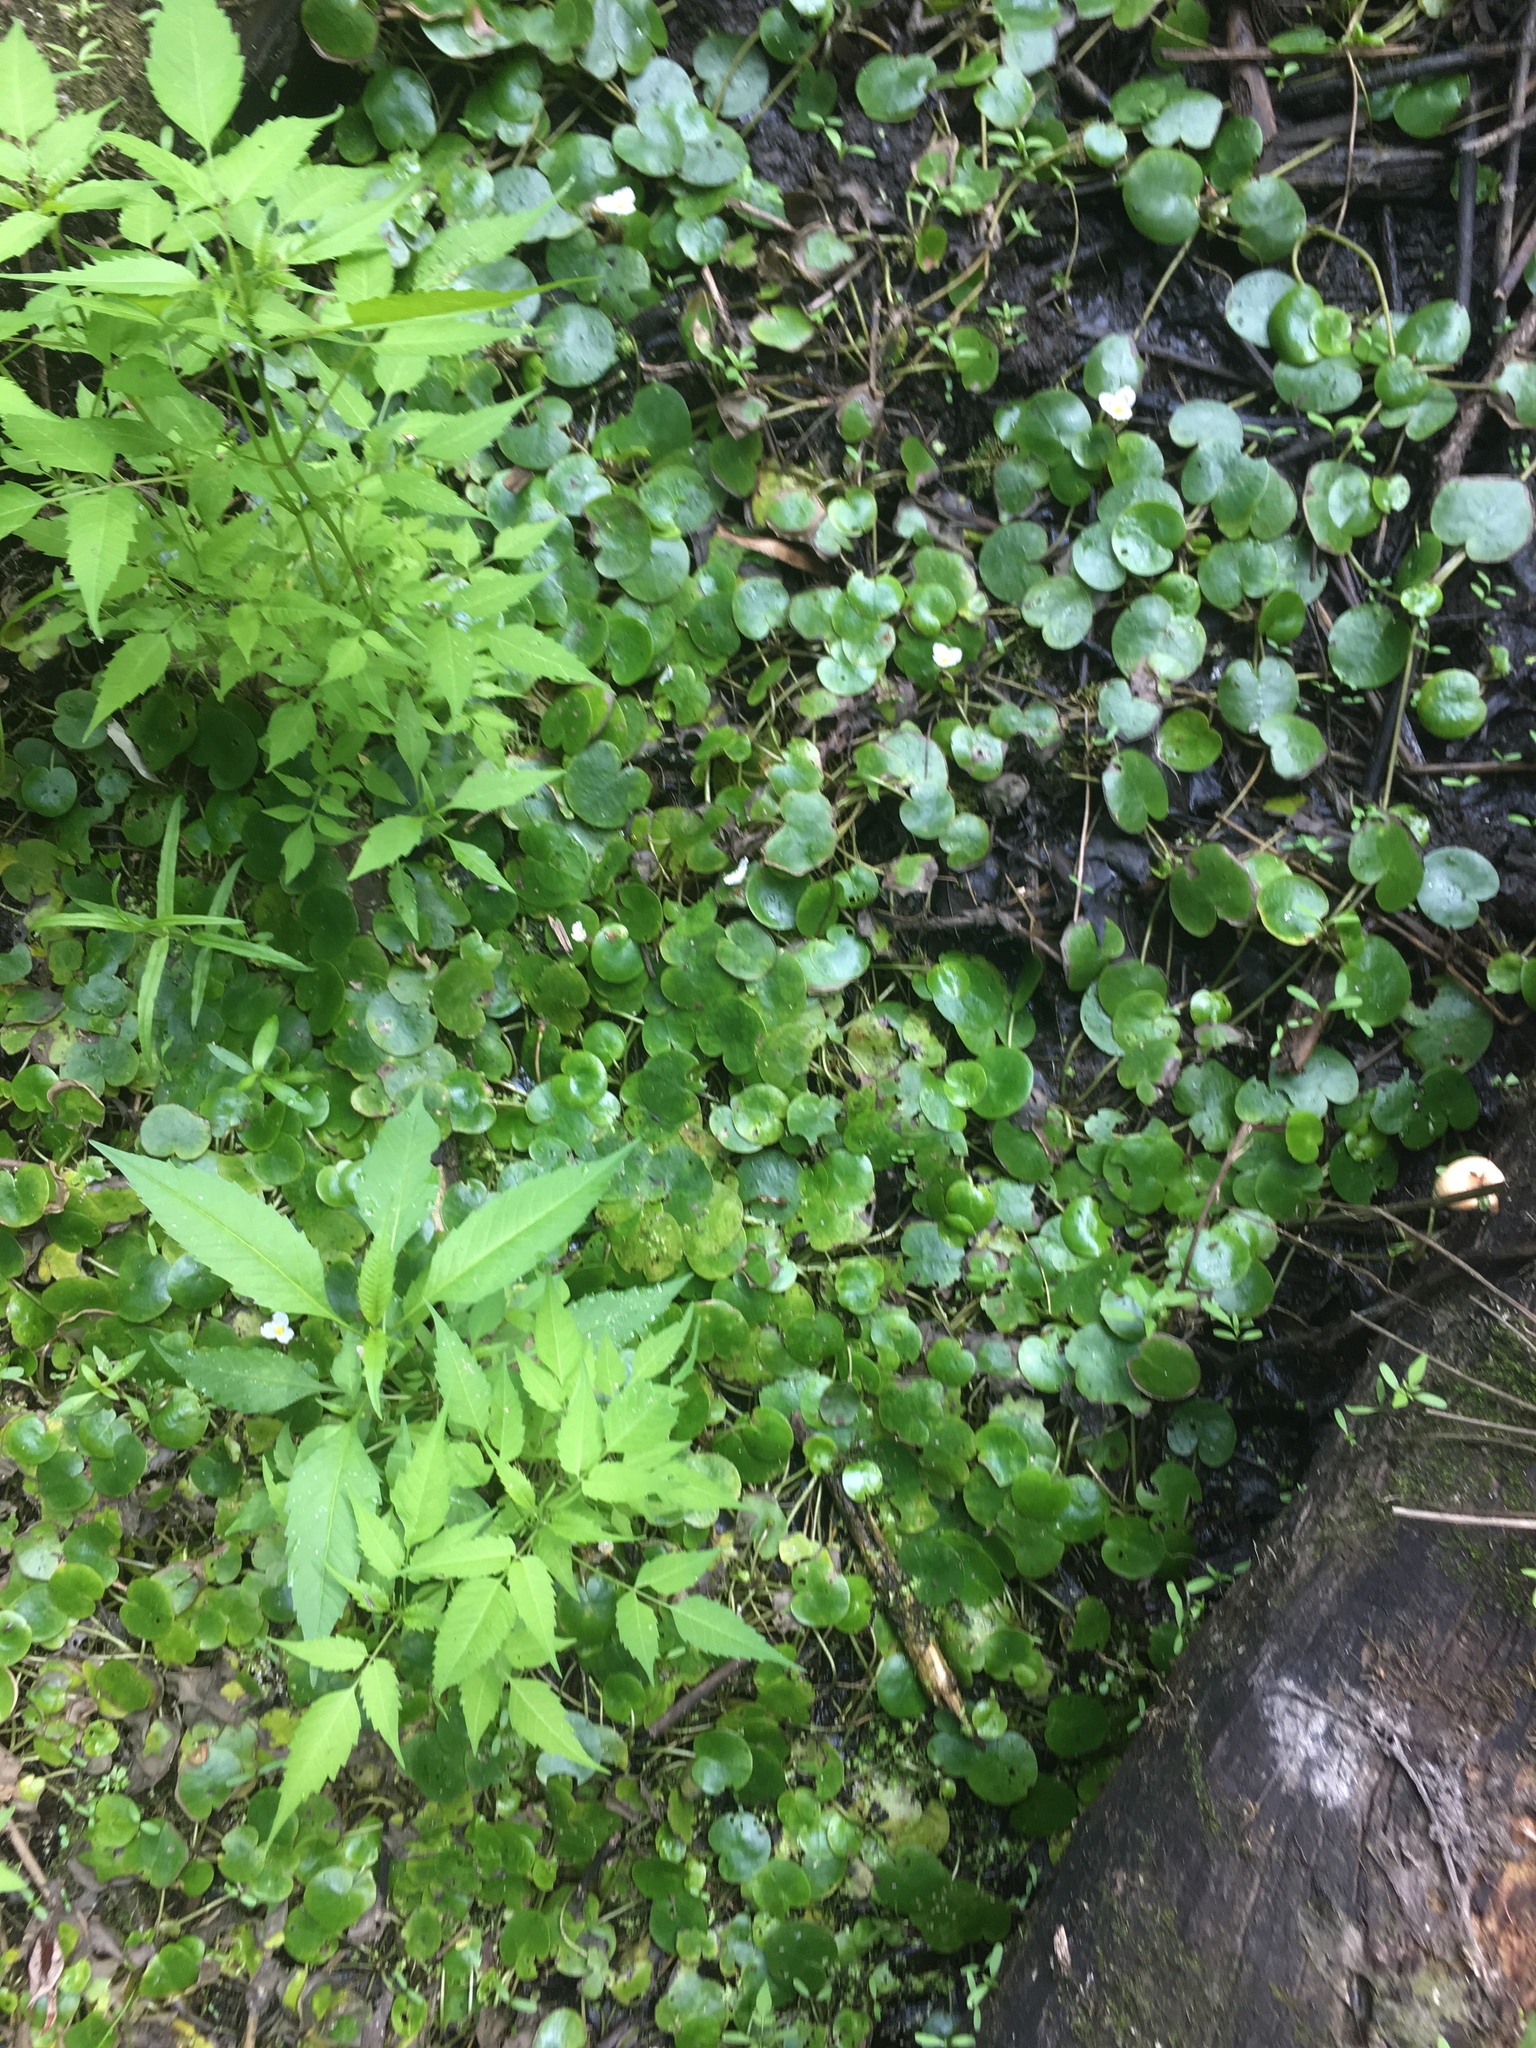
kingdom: Plantae
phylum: Tracheophyta
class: Liliopsida
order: Alismatales
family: Hydrocharitaceae
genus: Hydrocharis
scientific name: Hydrocharis morsus-ranae
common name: Frogbit
